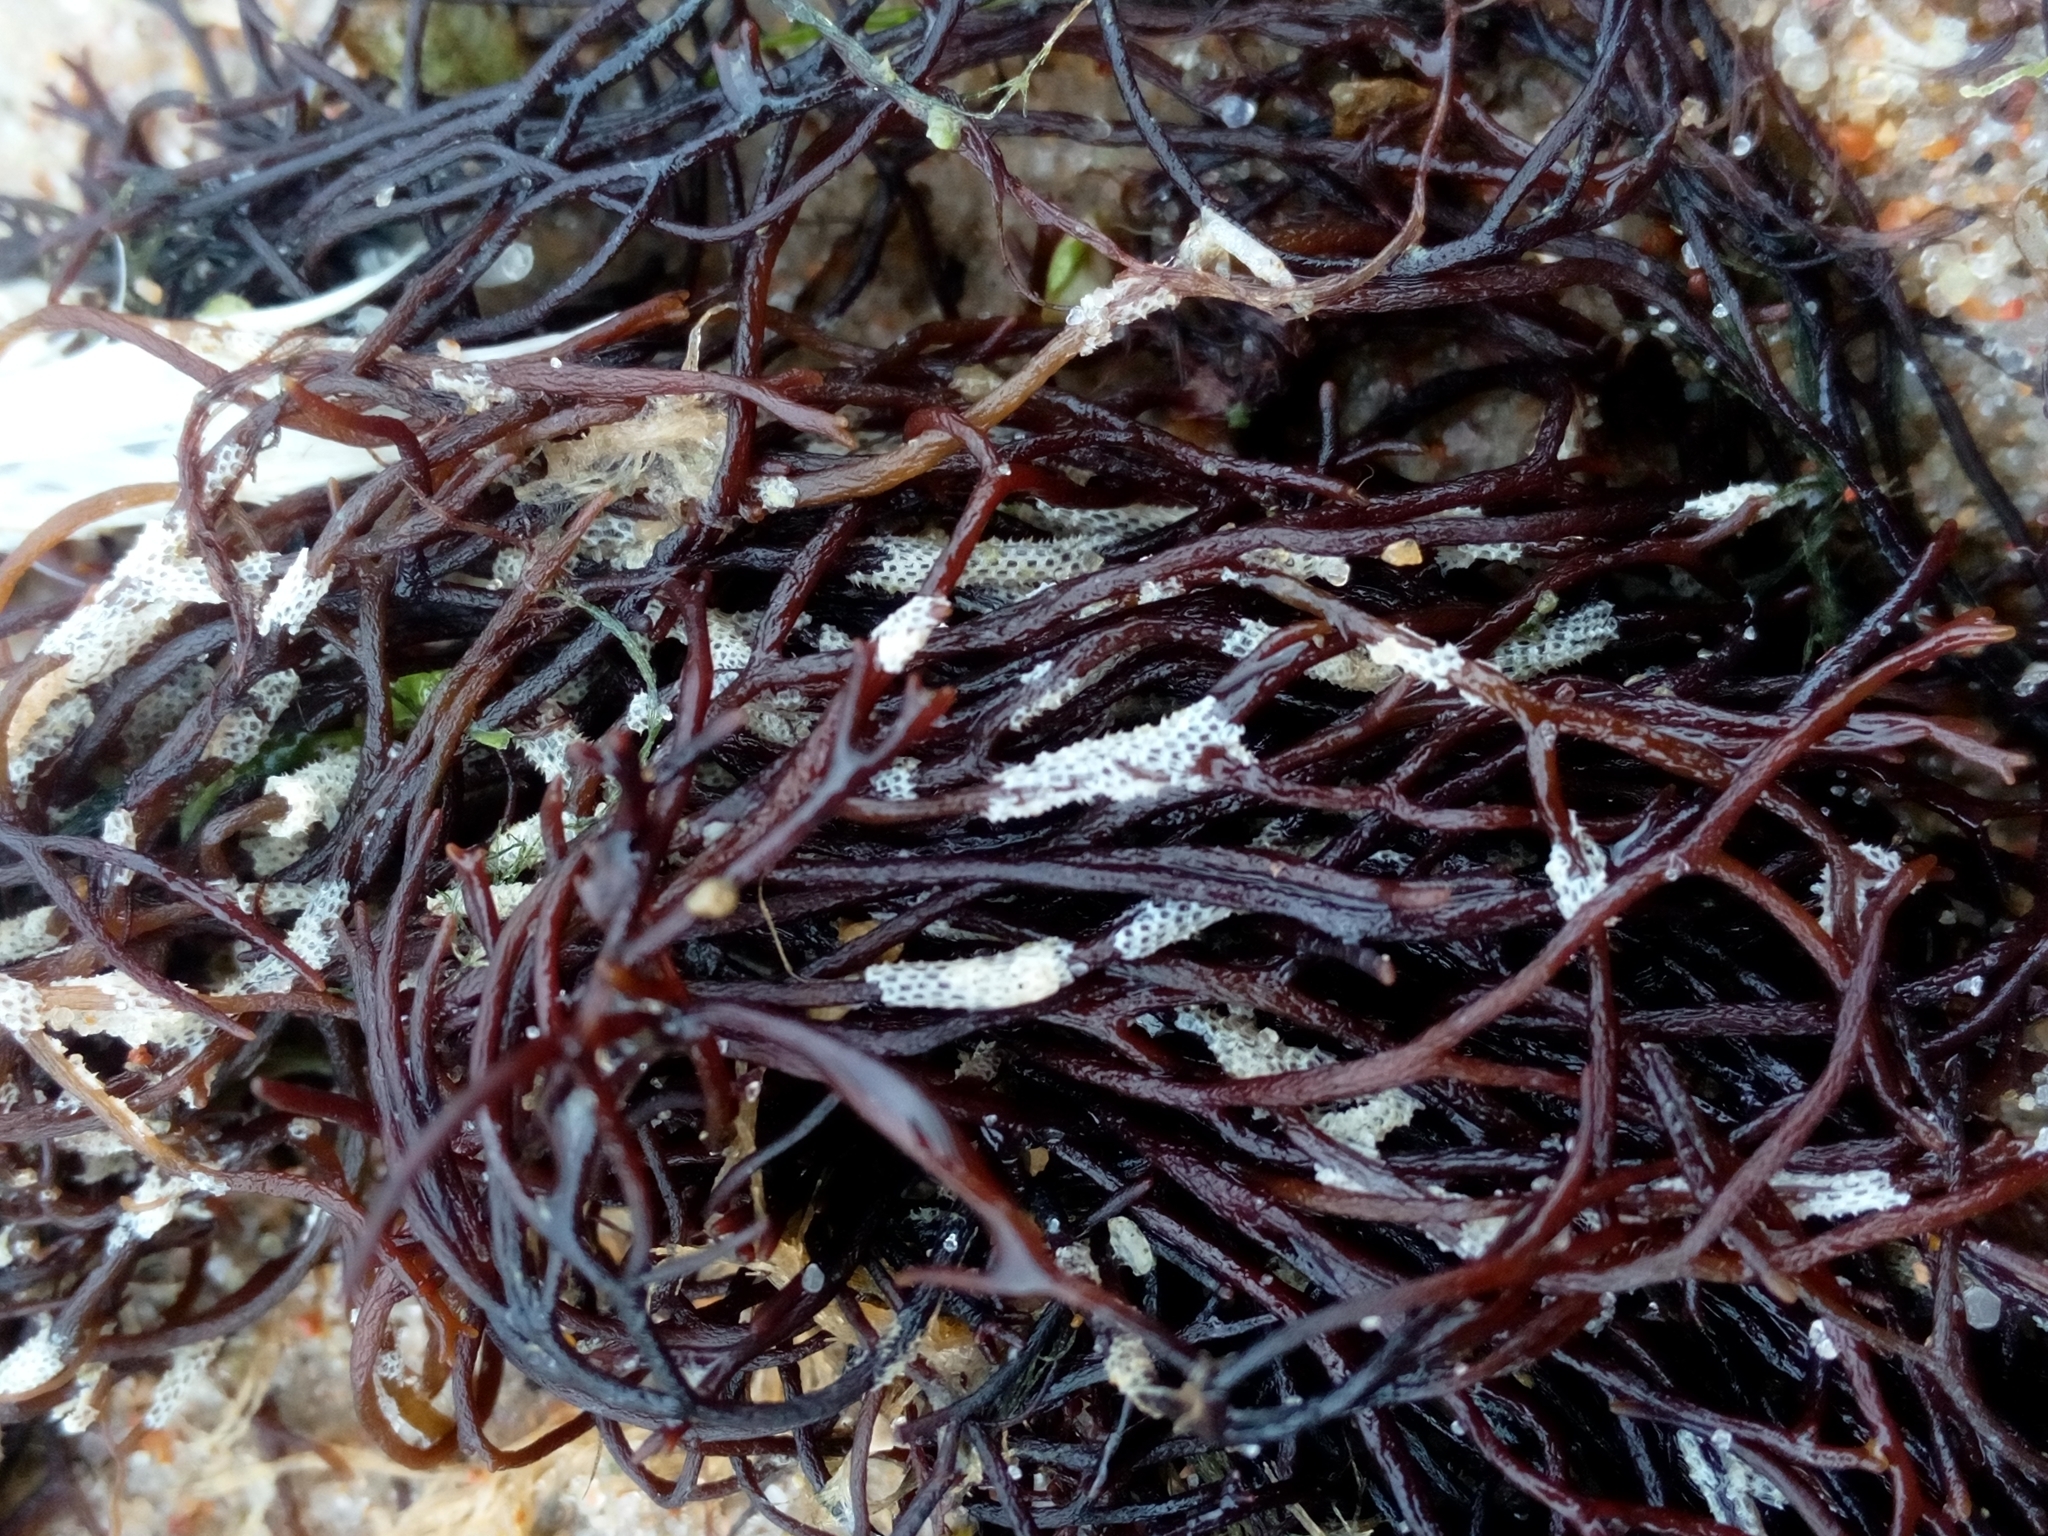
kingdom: Animalia
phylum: Bryozoa
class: Gymnolaemata
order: Cheilostomatida
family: Electridae
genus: Electra
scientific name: Electra pilosa
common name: Hairy sea-mat
